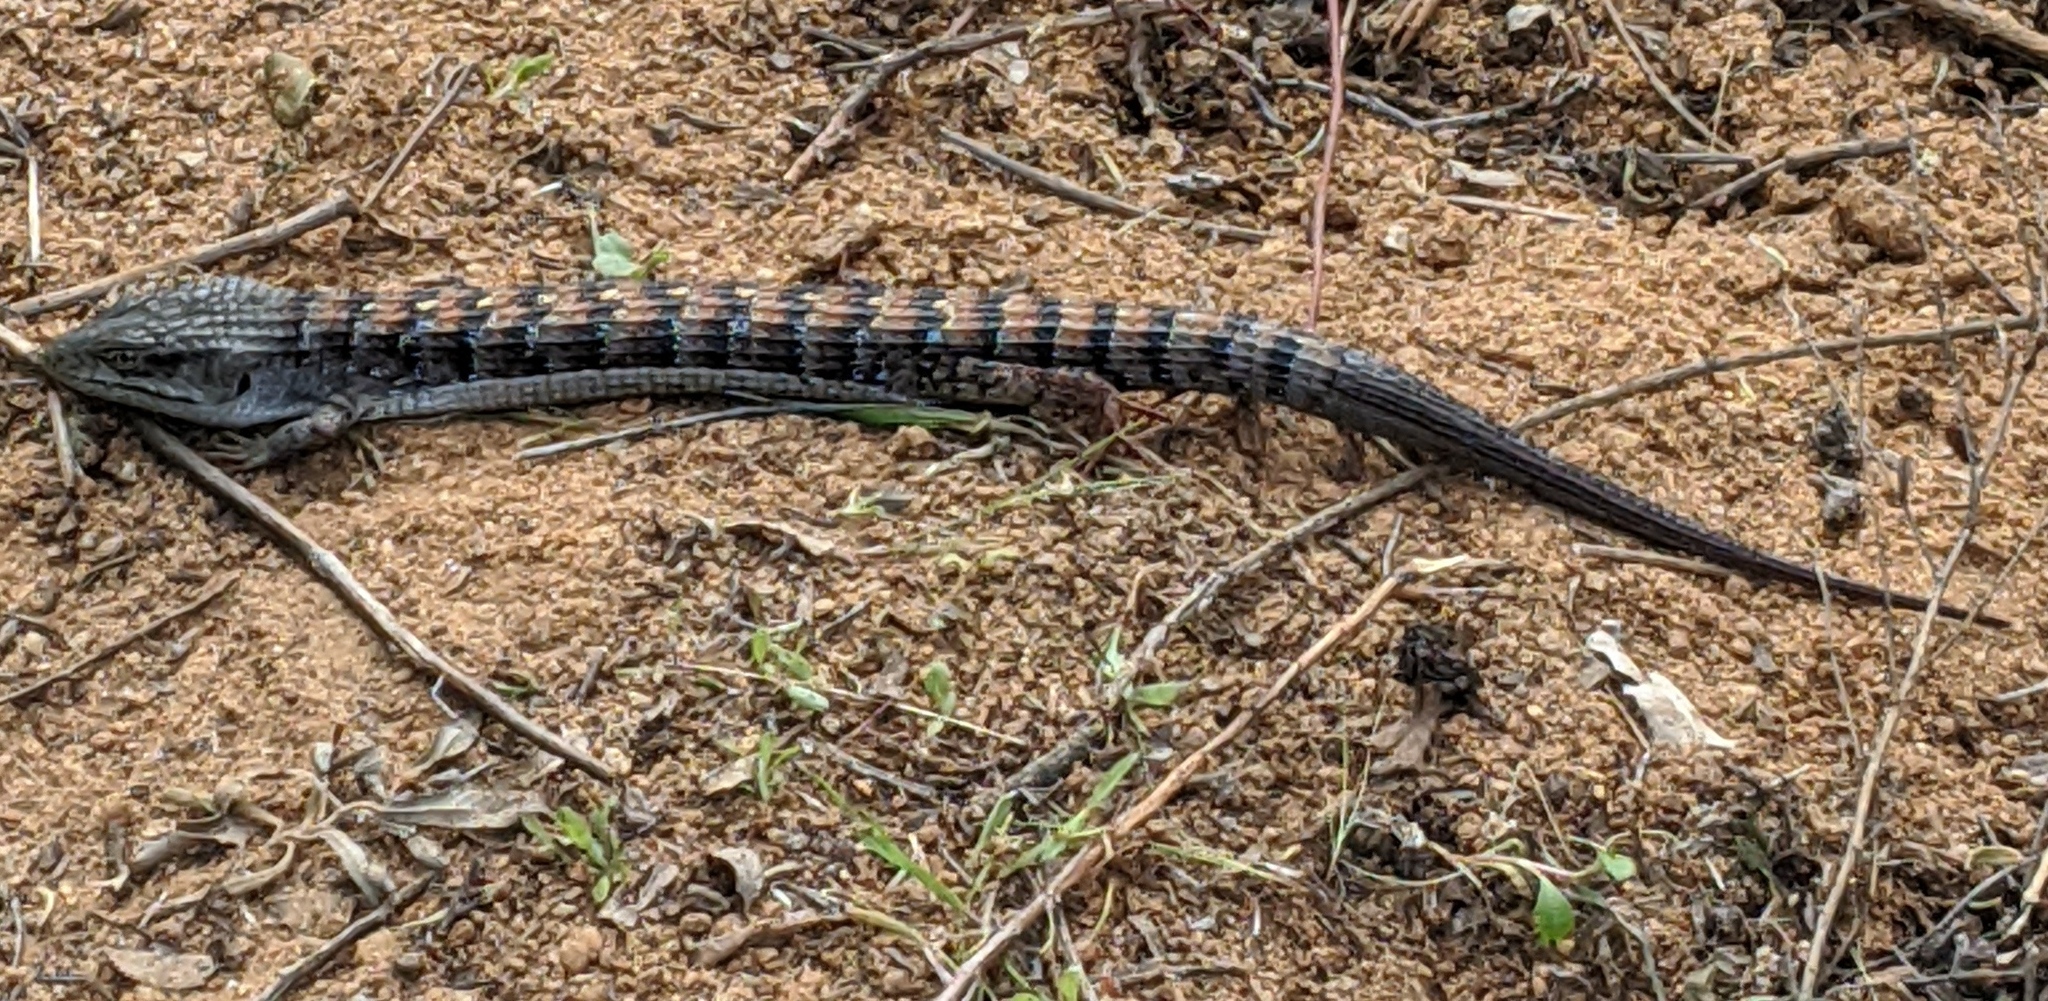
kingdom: Animalia
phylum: Chordata
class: Squamata
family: Anguidae
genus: Elgaria
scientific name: Elgaria multicarinata
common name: Southern alligator lizard
